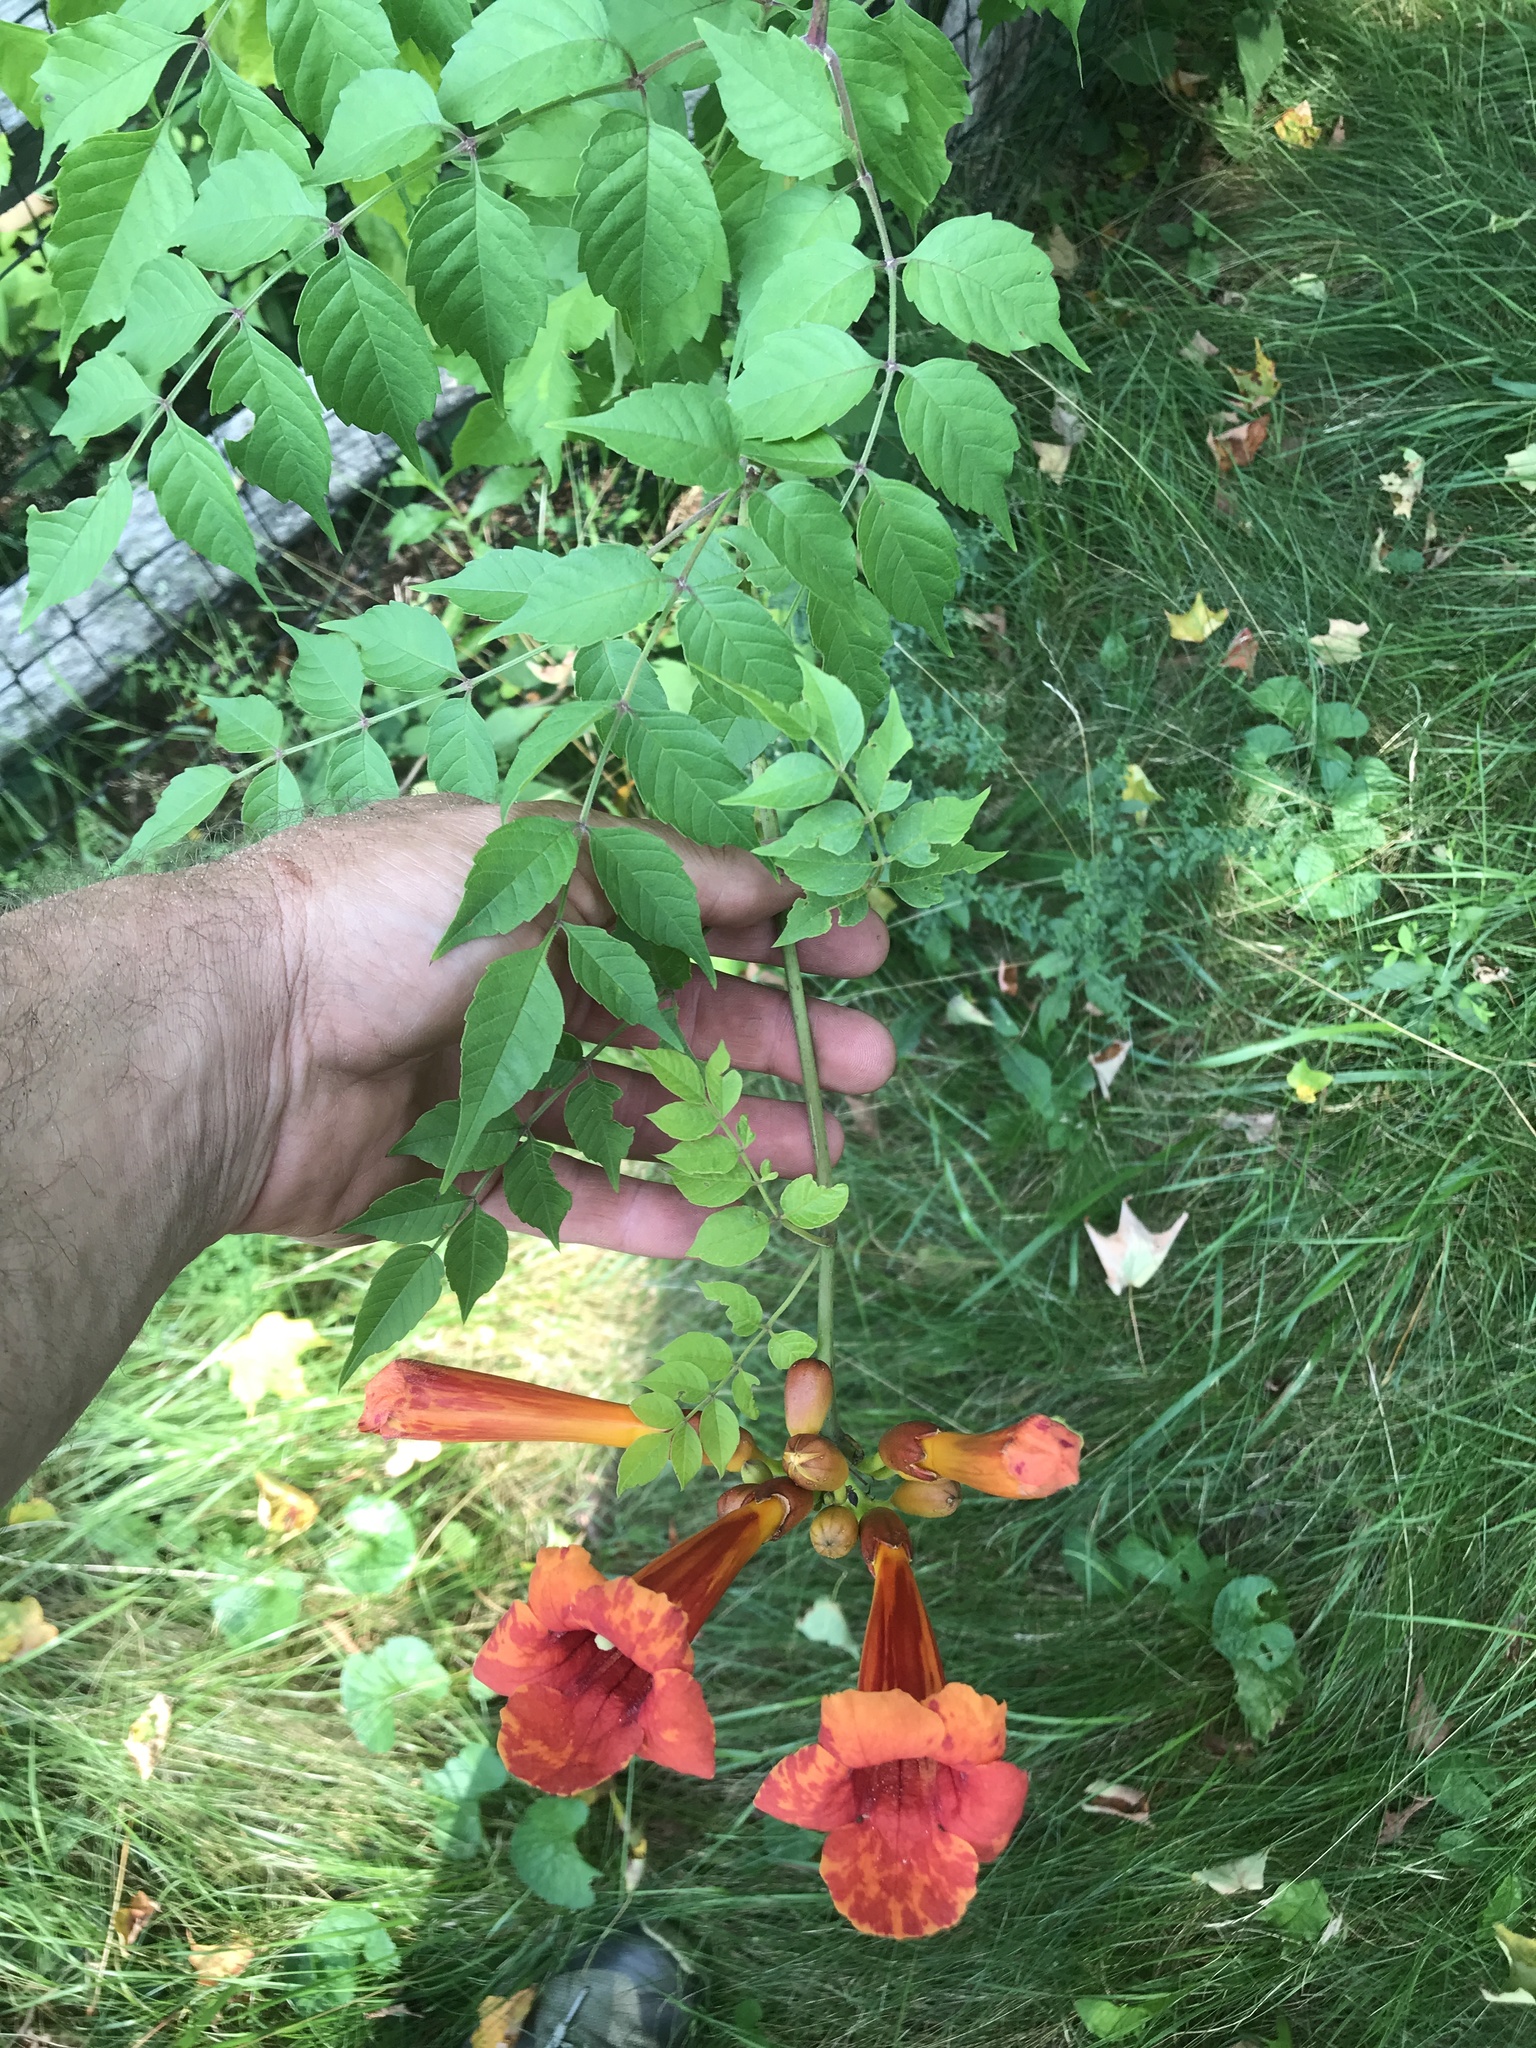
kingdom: Plantae
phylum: Tracheophyta
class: Magnoliopsida
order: Lamiales
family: Bignoniaceae
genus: Campsis
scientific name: Campsis radicans
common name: Trumpet-creeper
